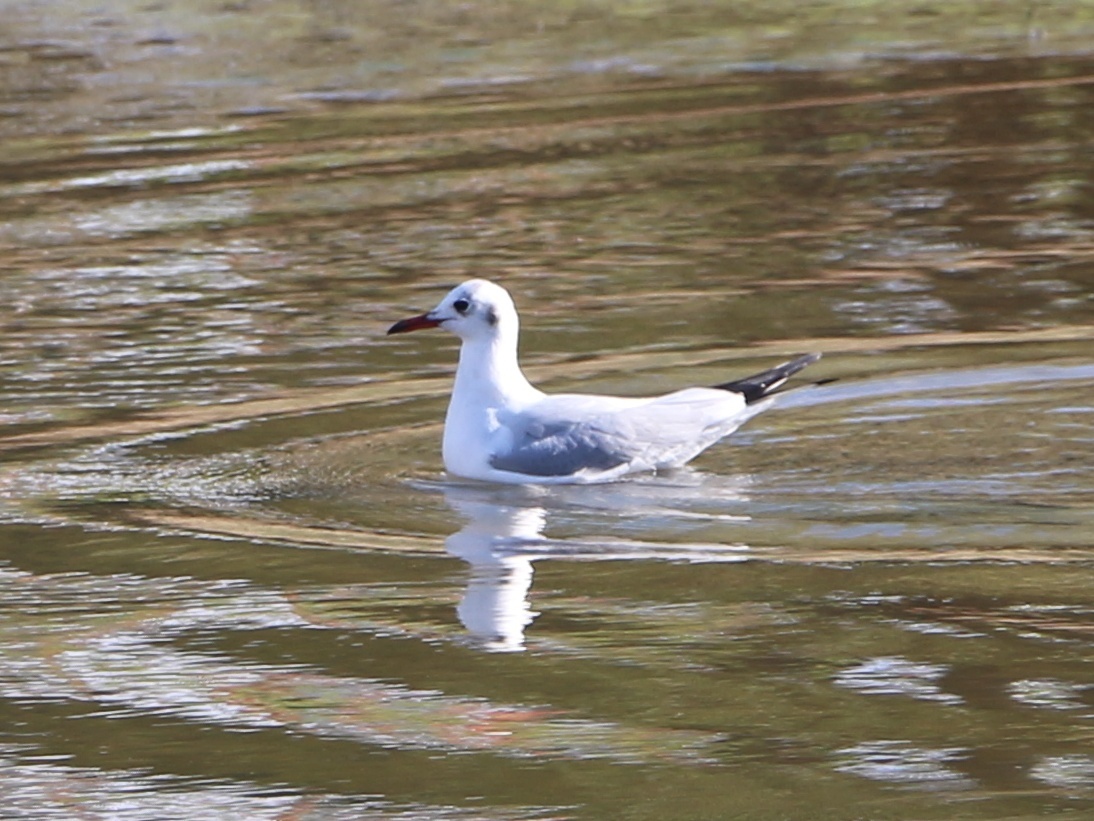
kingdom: Animalia
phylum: Chordata
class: Aves
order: Charadriiformes
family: Laridae
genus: Chroicocephalus
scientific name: Chroicocephalus ridibundus
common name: Black-headed gull
